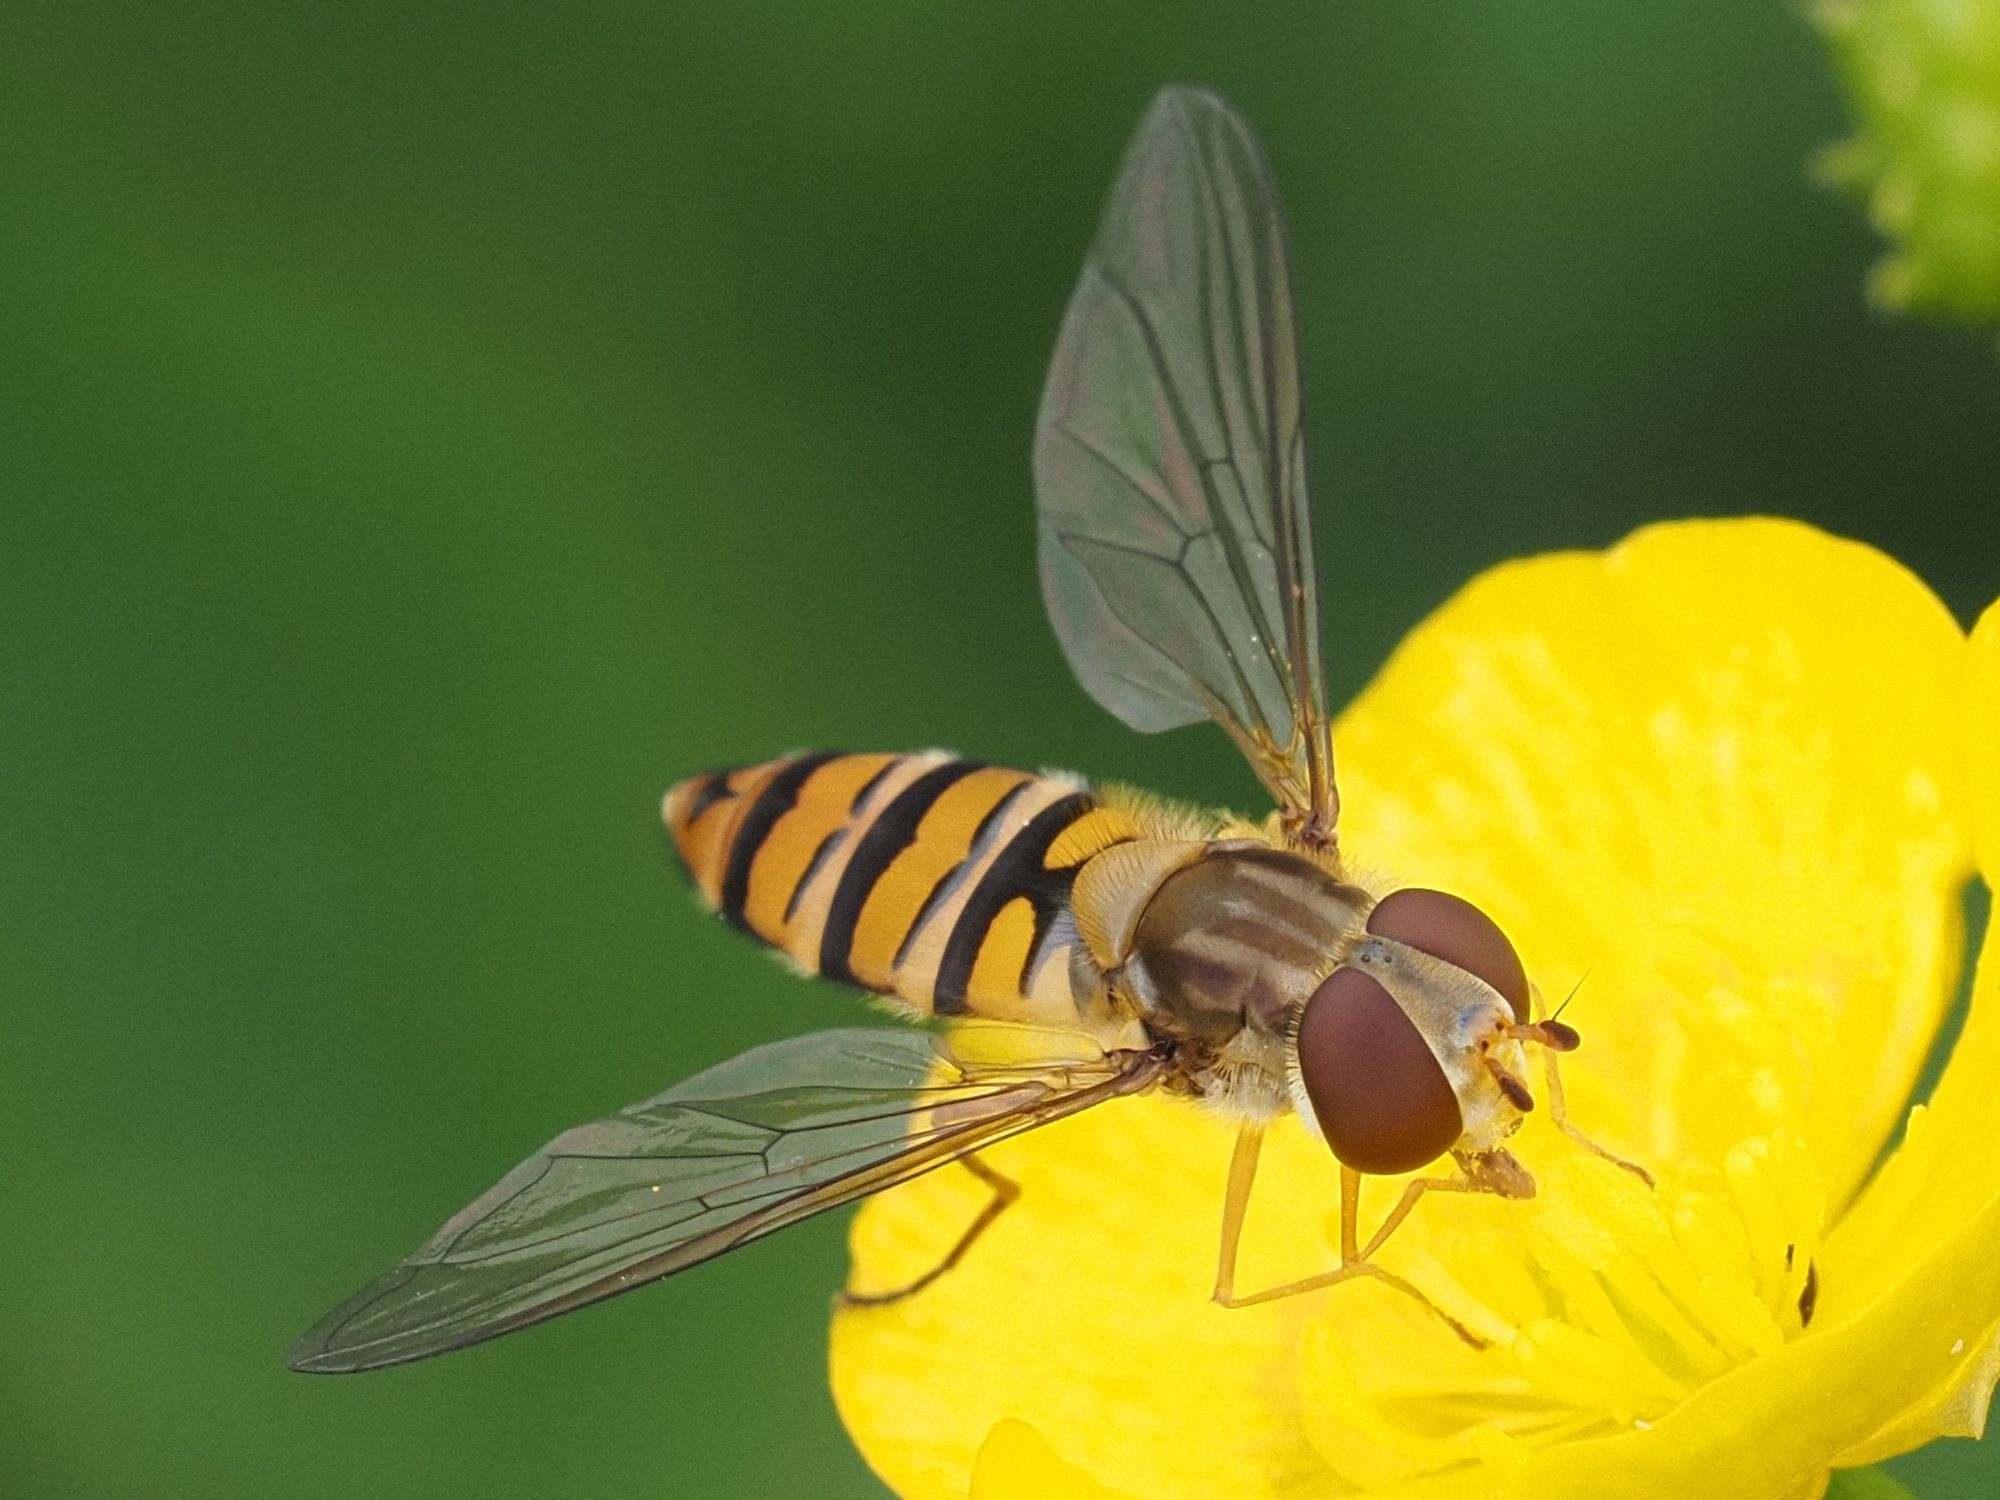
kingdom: Animalia
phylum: Arthropoda
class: Insecta
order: Diptera
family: Syrphidae
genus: Episyrphus
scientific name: Episyrphus balteatus
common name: Marmalade hoverfly
